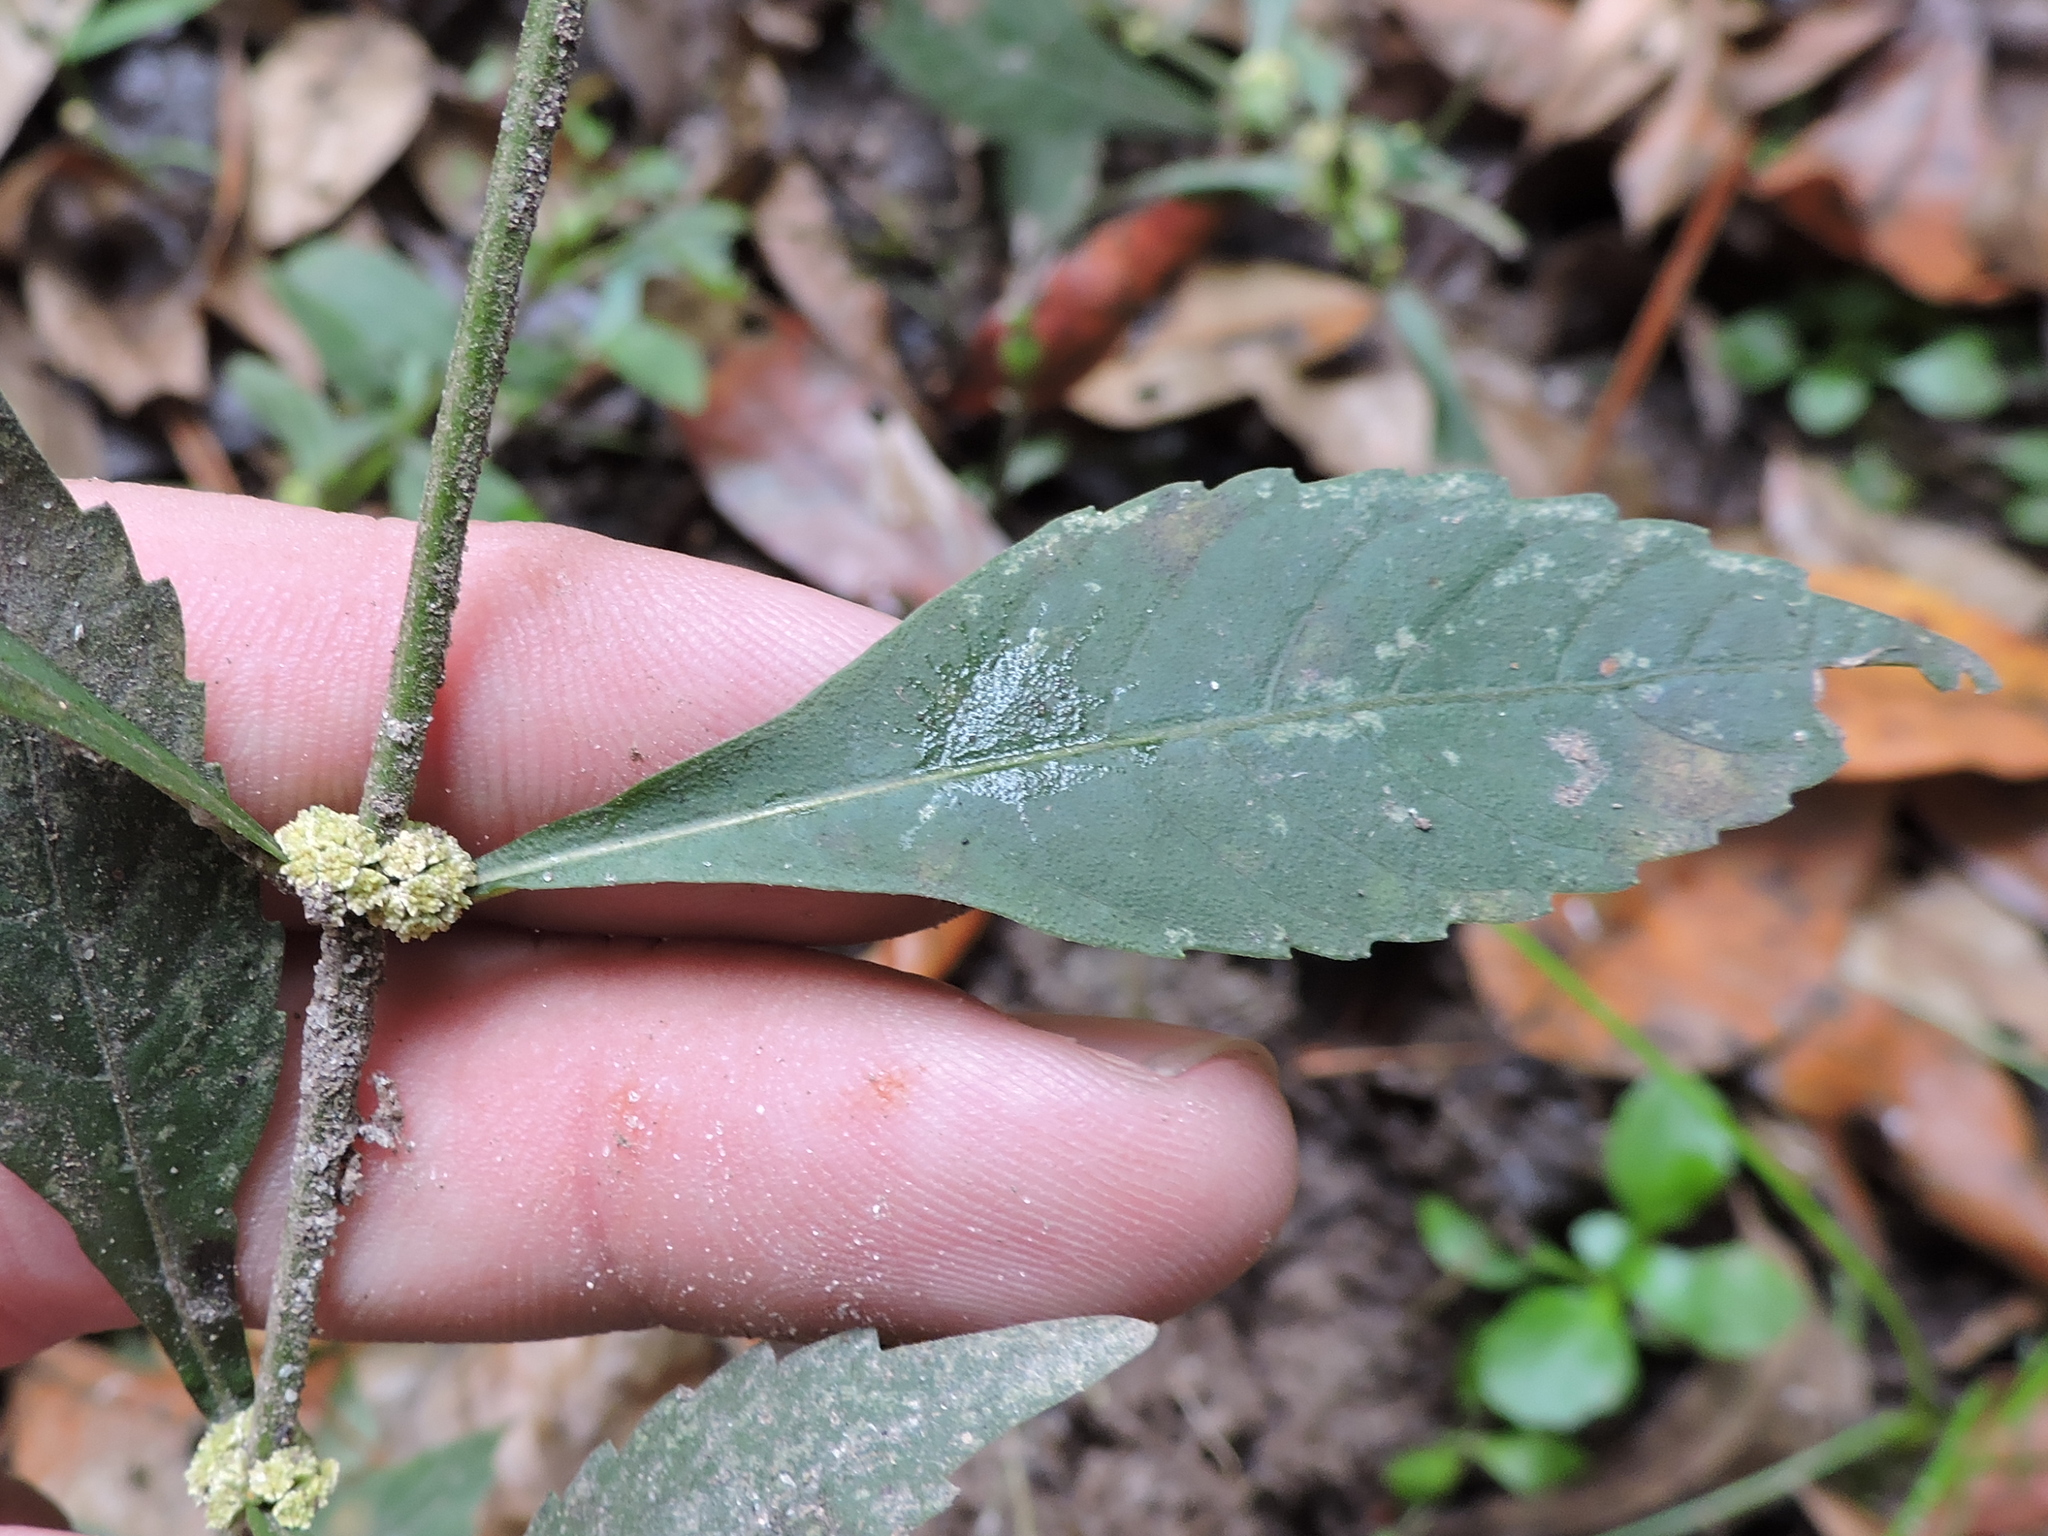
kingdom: Plantae
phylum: Tracheophyta
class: Magnoliopsida
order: Lamiales
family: Lamiaceae
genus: Lycopus
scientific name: Lycopus rubellus
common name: Stalked bugleweed
